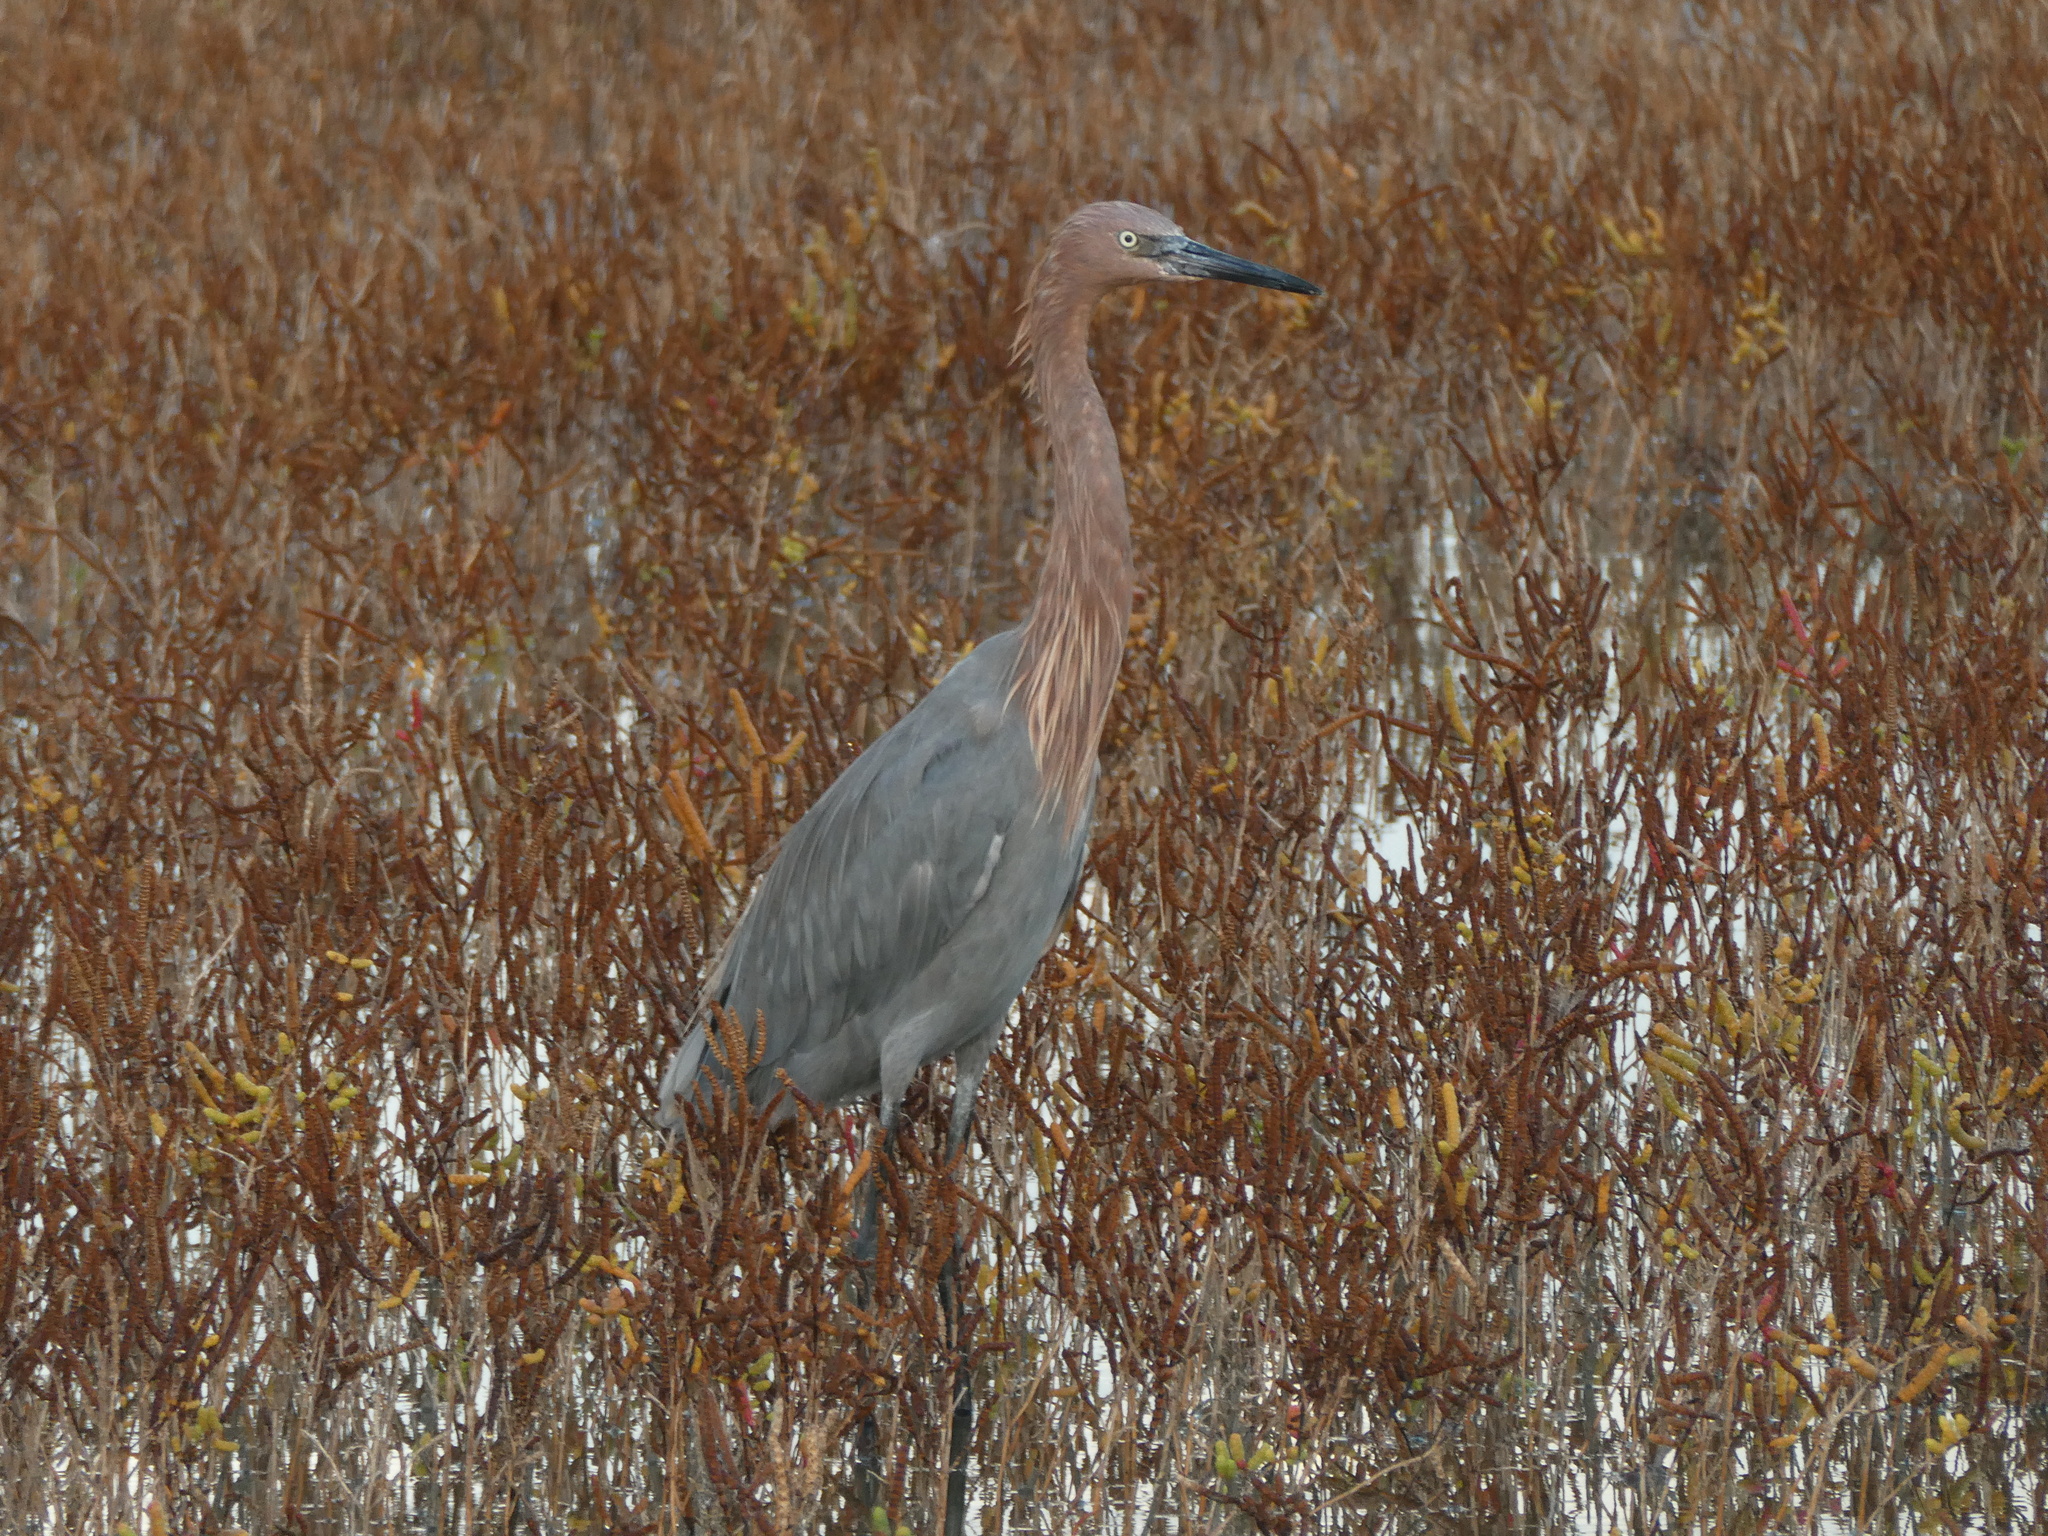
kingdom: Animalia
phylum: Chordata
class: Aves
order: Pelecaniformes
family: Ardeidae
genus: Egretta
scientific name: Egretta rufescens
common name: Reddish egret
